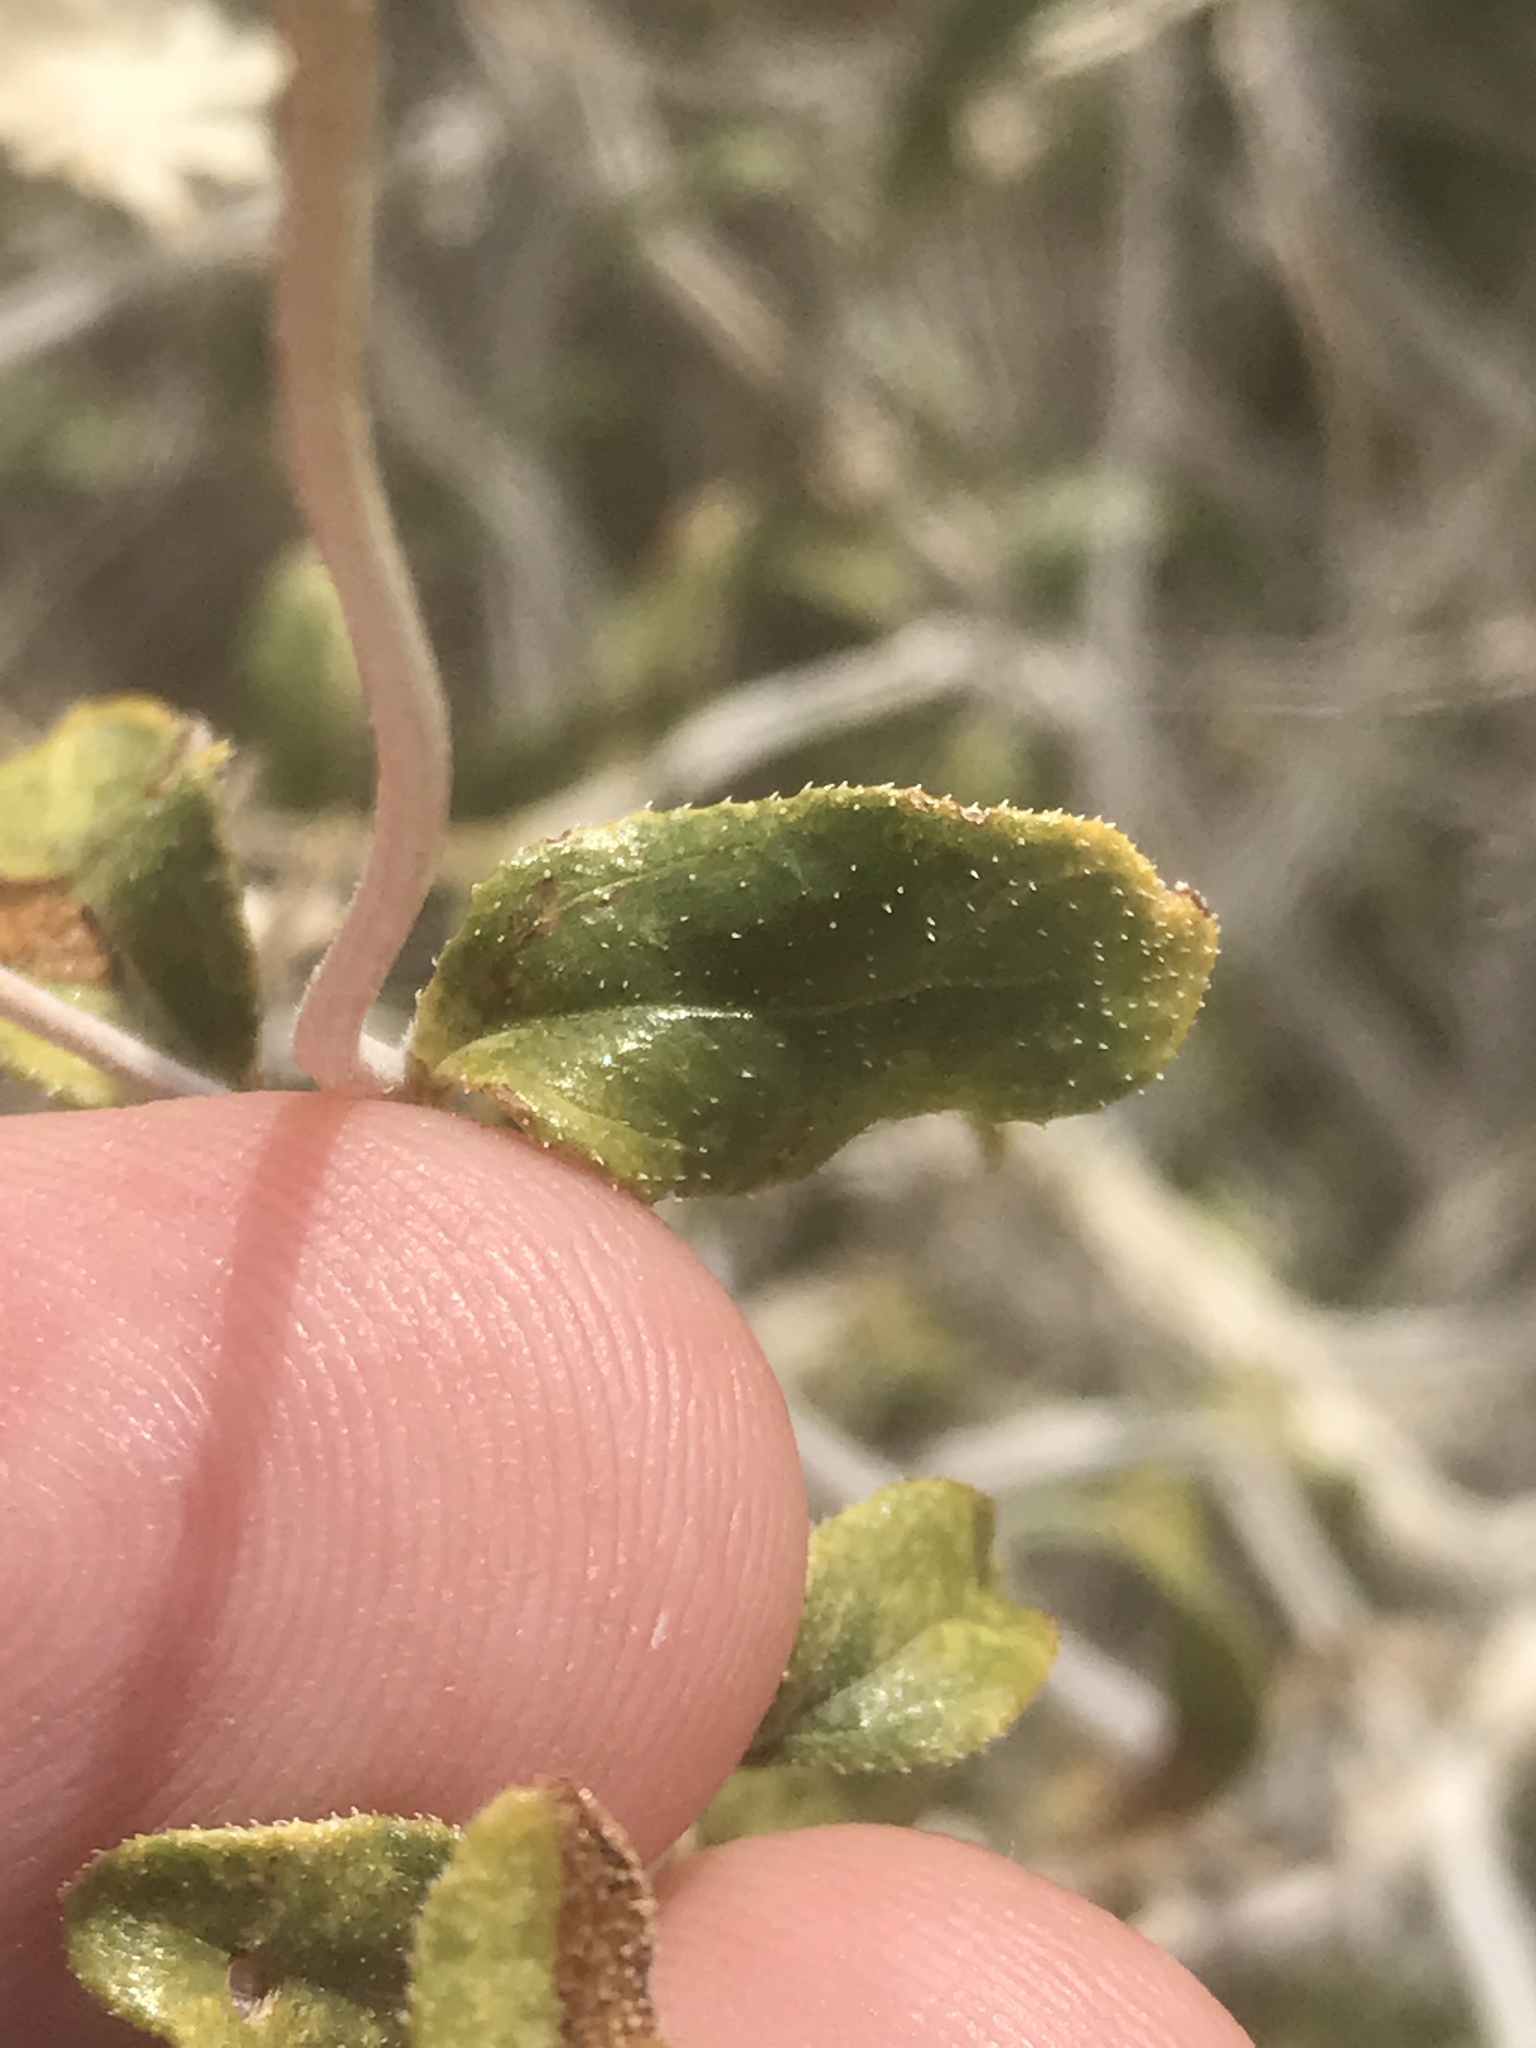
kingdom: Plantae
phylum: Tracheophyta
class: Magnoliopsida
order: Asterales
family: Asteraceae
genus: Encelia
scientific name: Encelia frutescens
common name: Bush encelia
